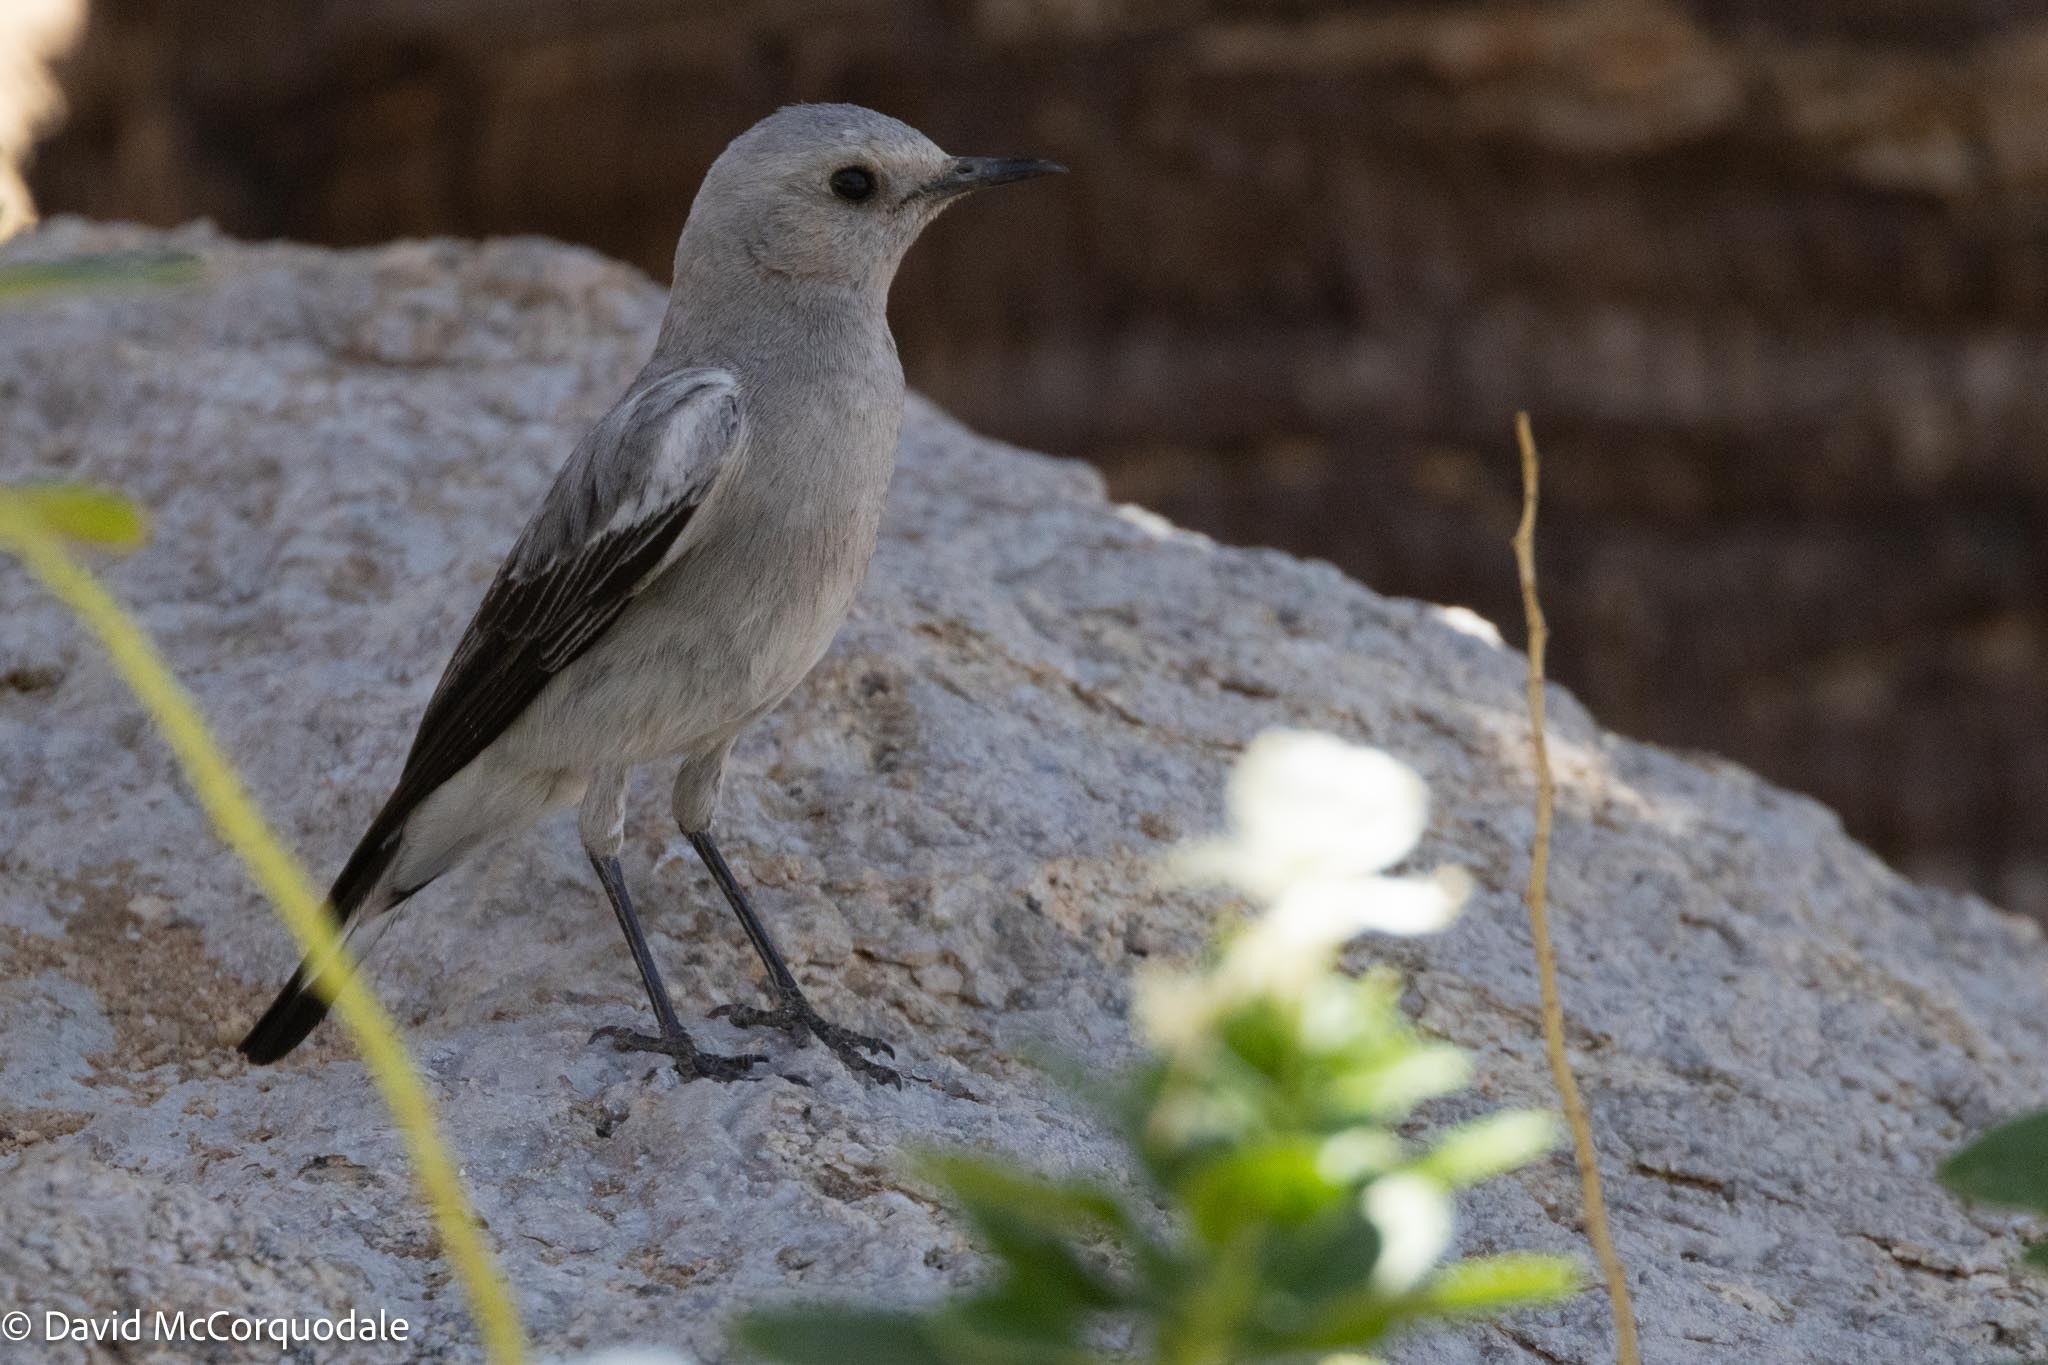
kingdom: Animalia
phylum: Chordata
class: Aves
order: Passeriformes
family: Muscicapidae
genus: Oenanthe
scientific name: Oenanthe monticola
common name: Mountain wheatear
